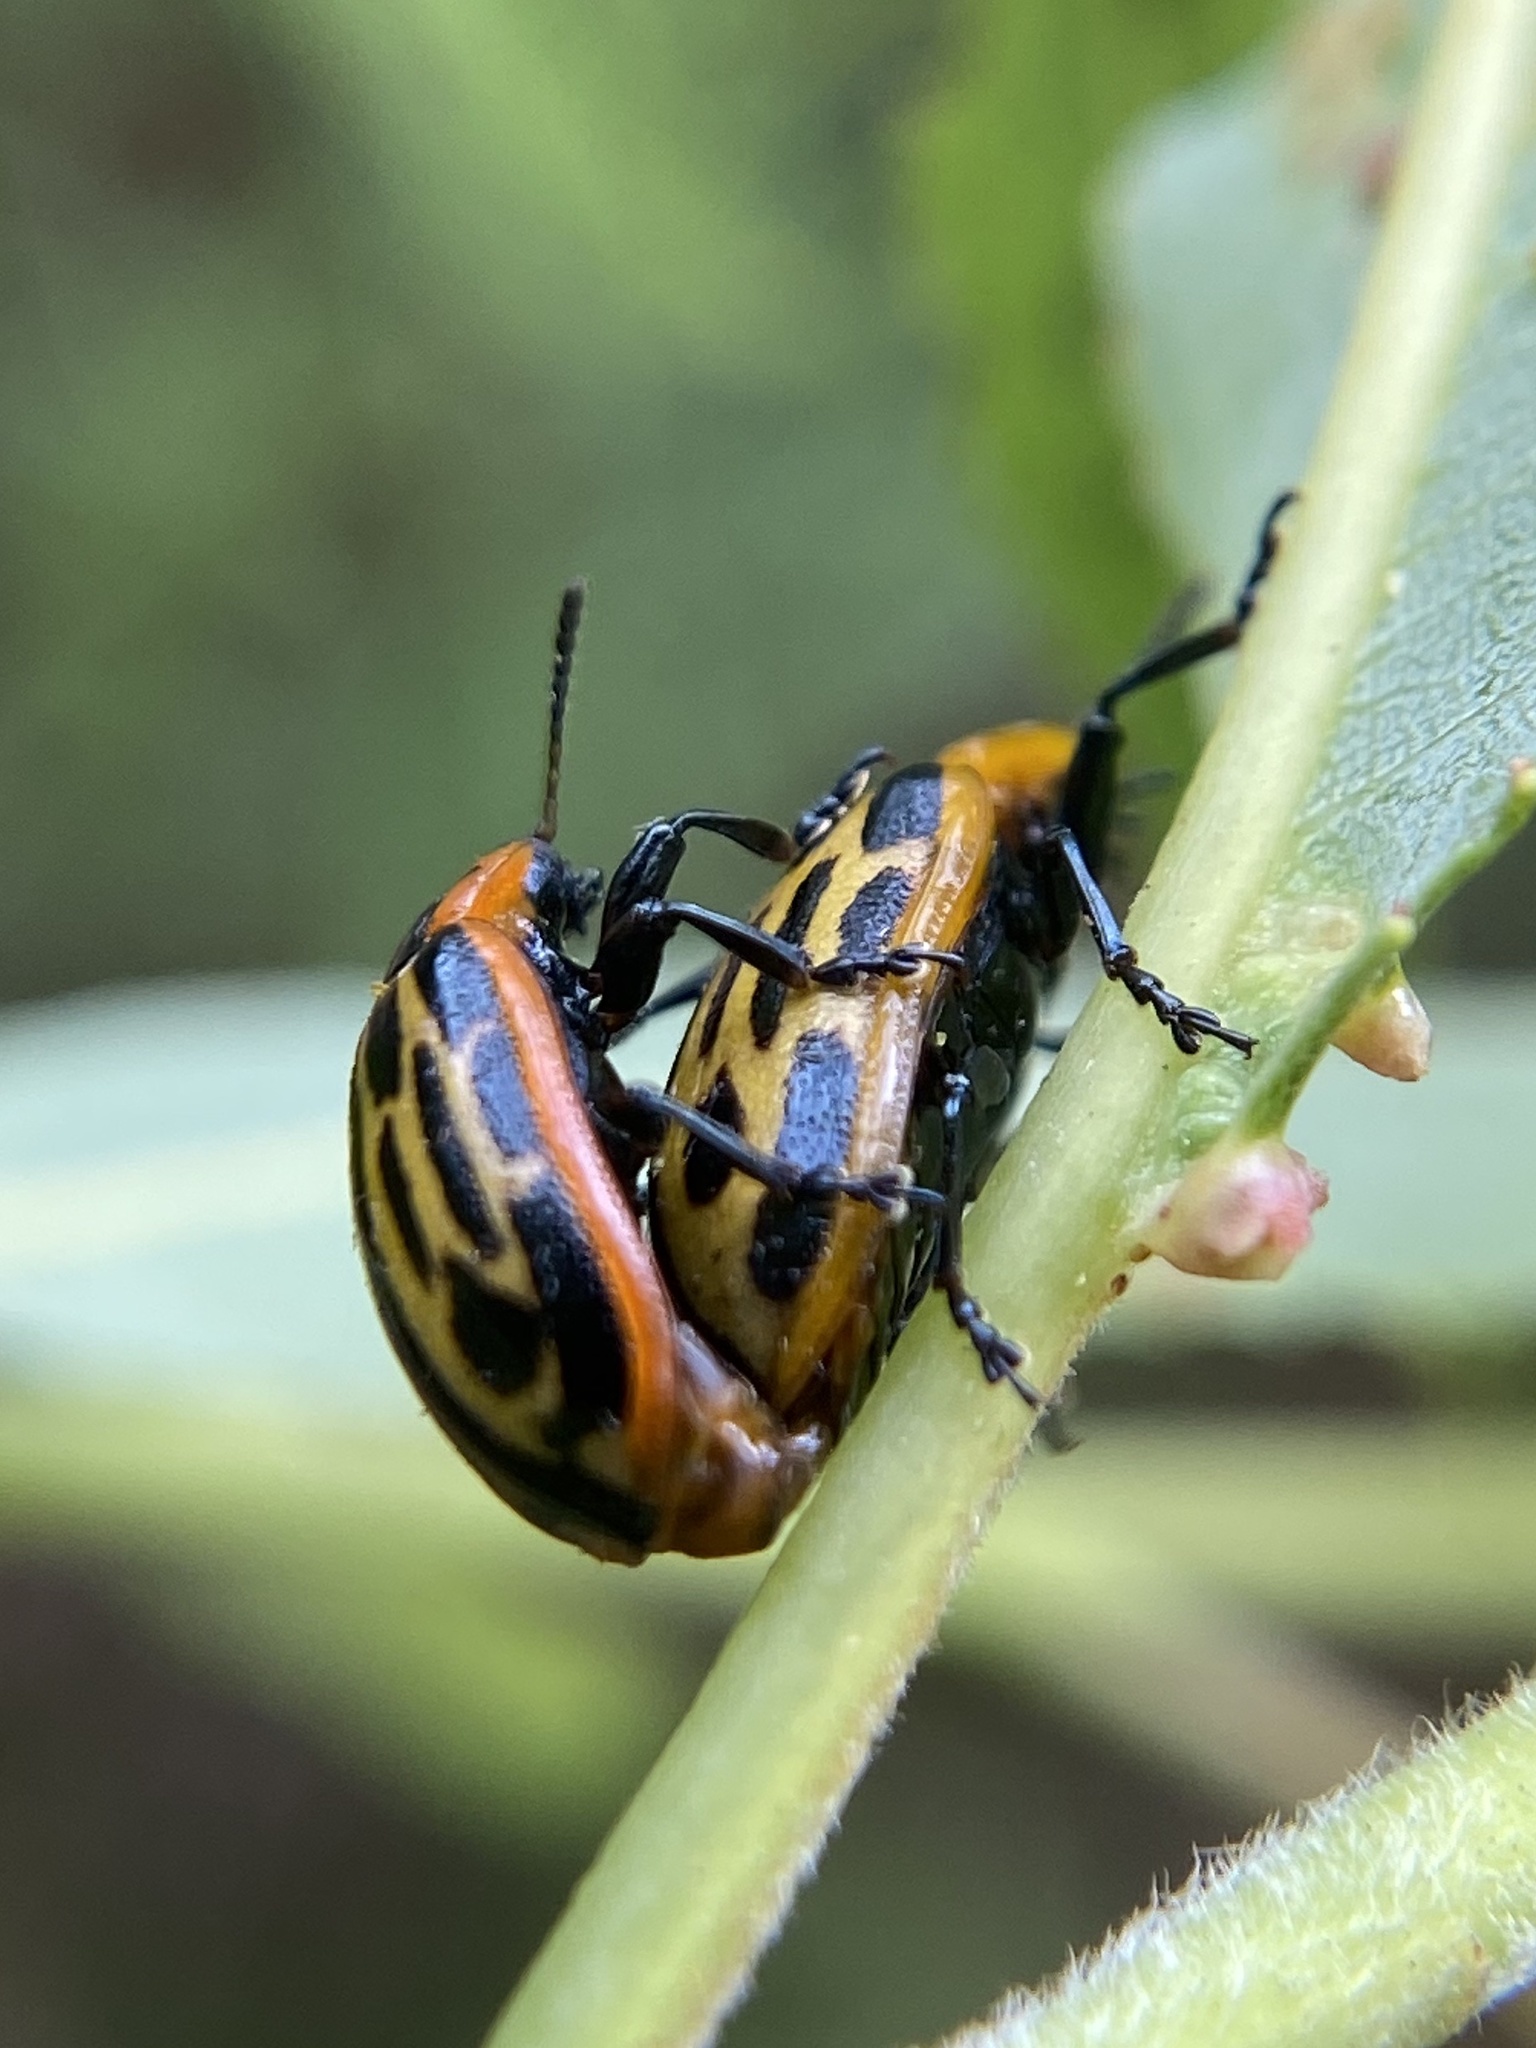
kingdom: Animalia
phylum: Arthropoda
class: Insecta
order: Coleoptera
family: Chrysomelidae
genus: Aethiopocassis
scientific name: Aethiopocassis scripta
